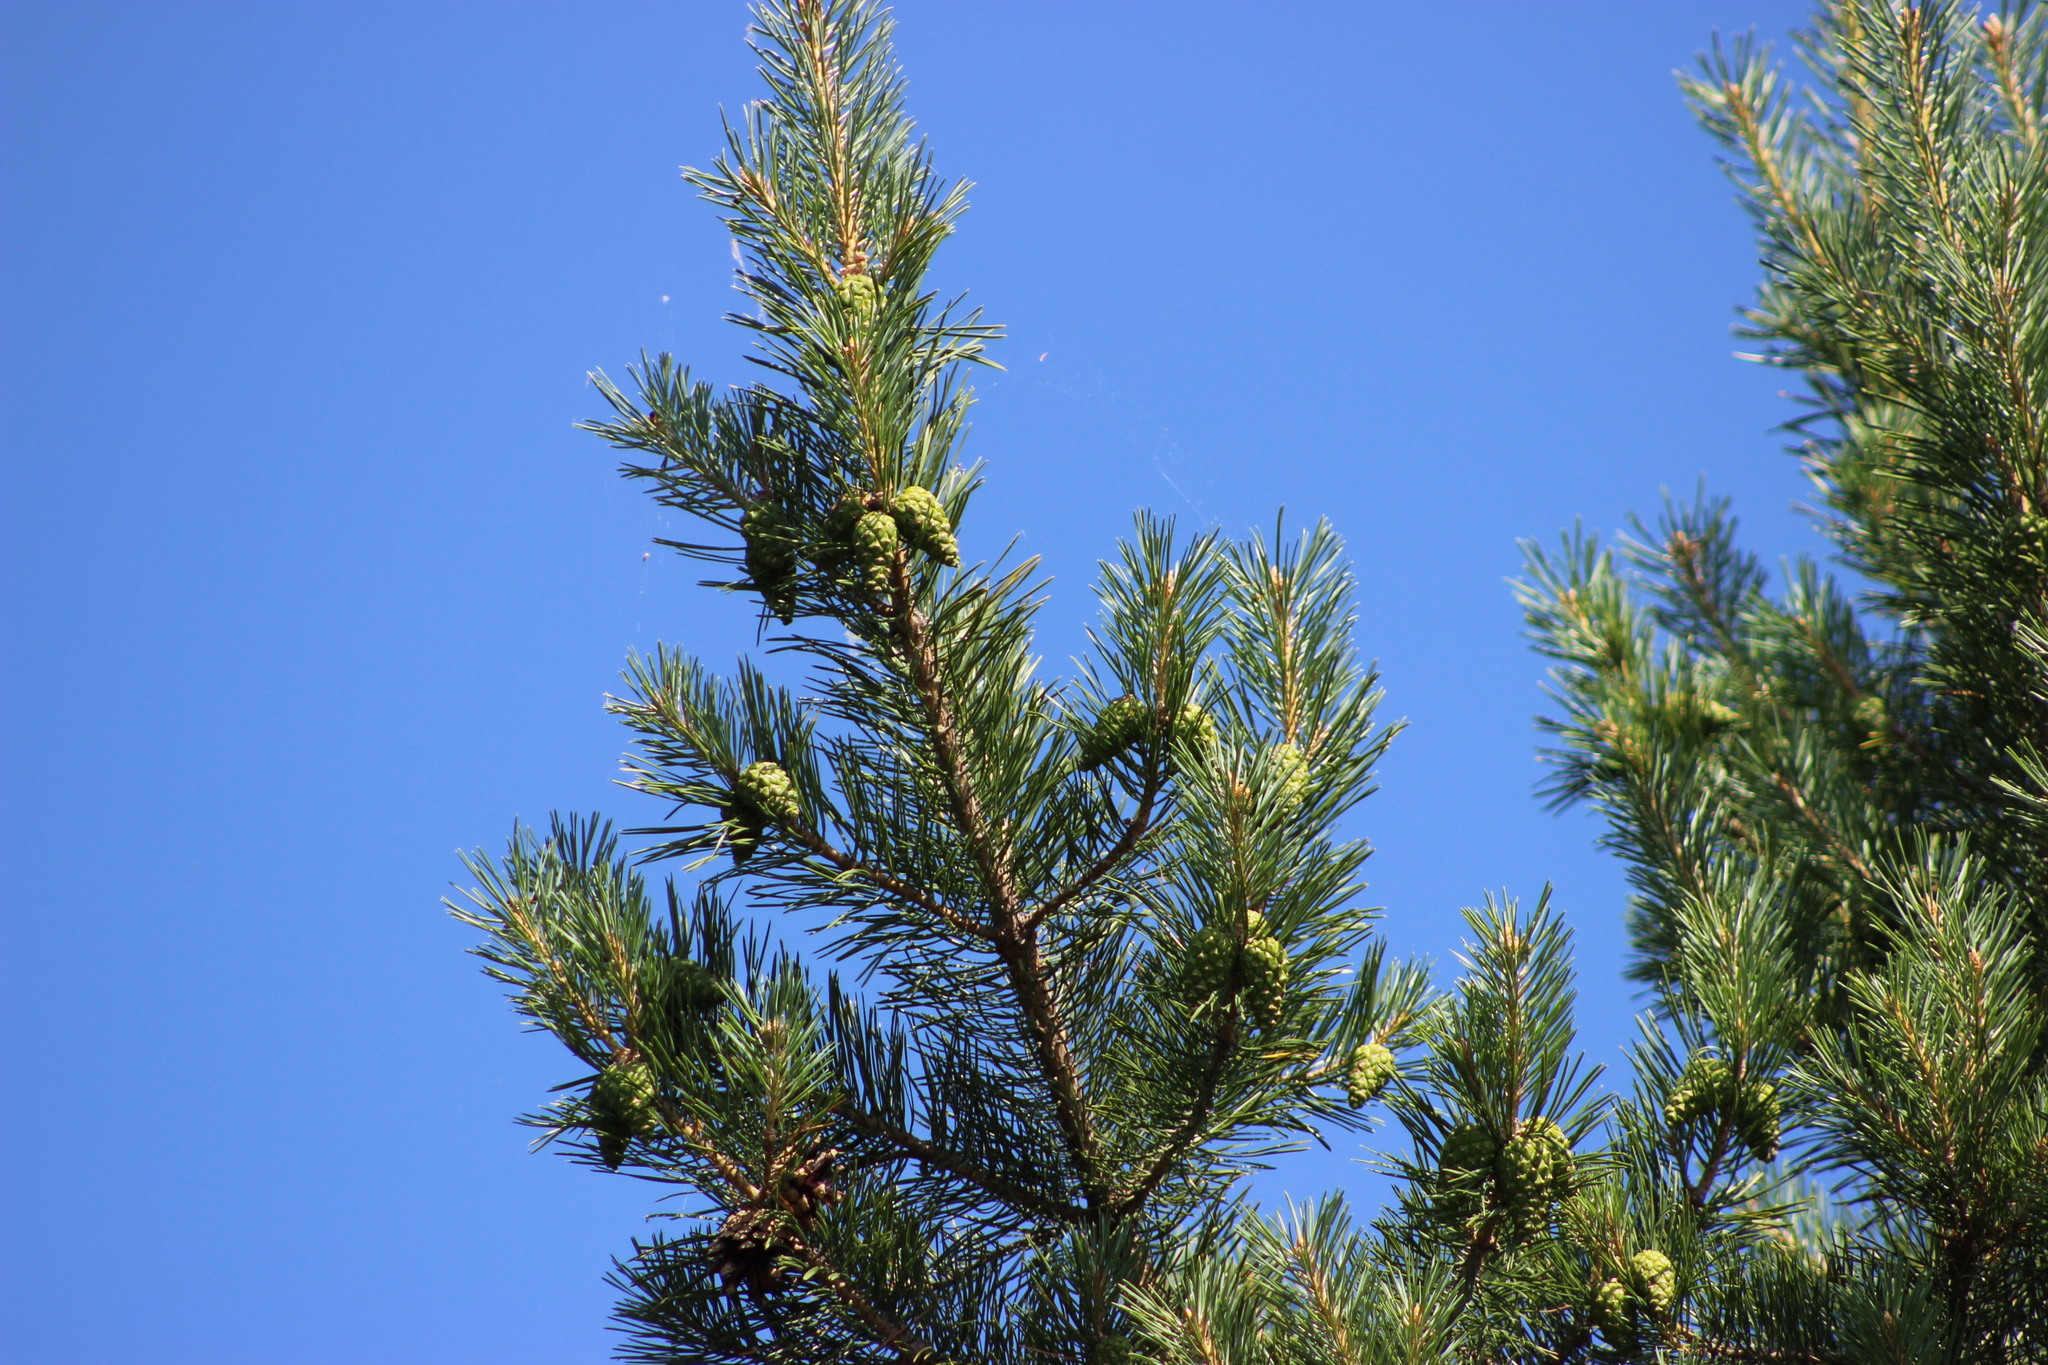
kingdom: Plantae
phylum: Tracheophyta
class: Pinopsida
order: Pinales
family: Pinaceae
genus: Pinus
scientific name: Pinus sylvestris
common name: Scots pine
